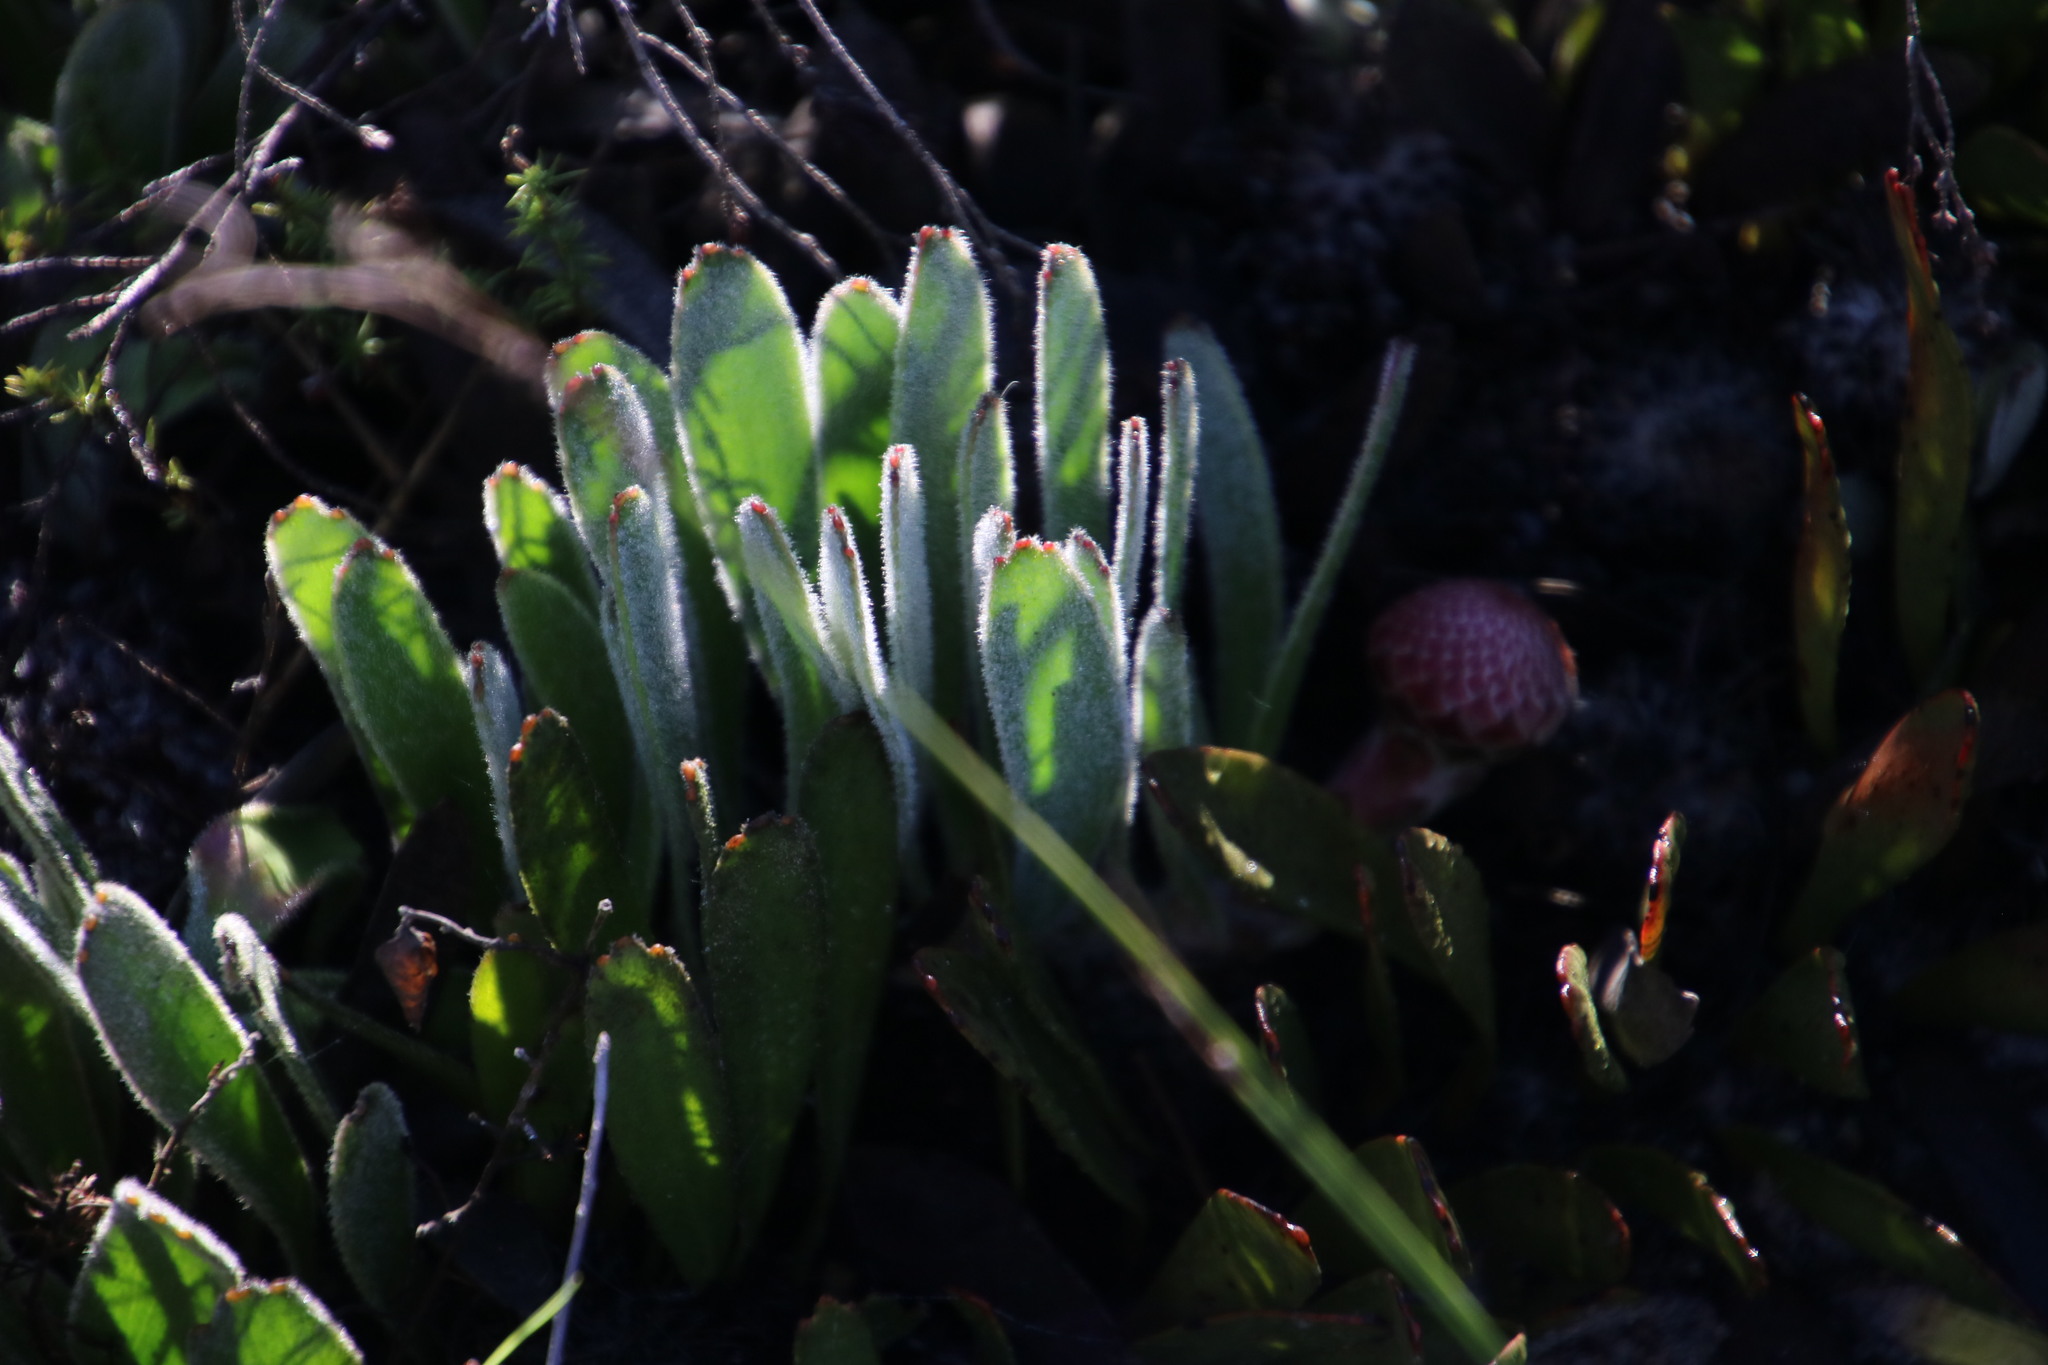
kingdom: Plantae
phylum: Tracheophyta
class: Magnoliopsida
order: Proteales
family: Proteaceae
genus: Leucospermum
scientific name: Leucospermum hypophyllocarpodendron
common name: Snakestem pincushion
